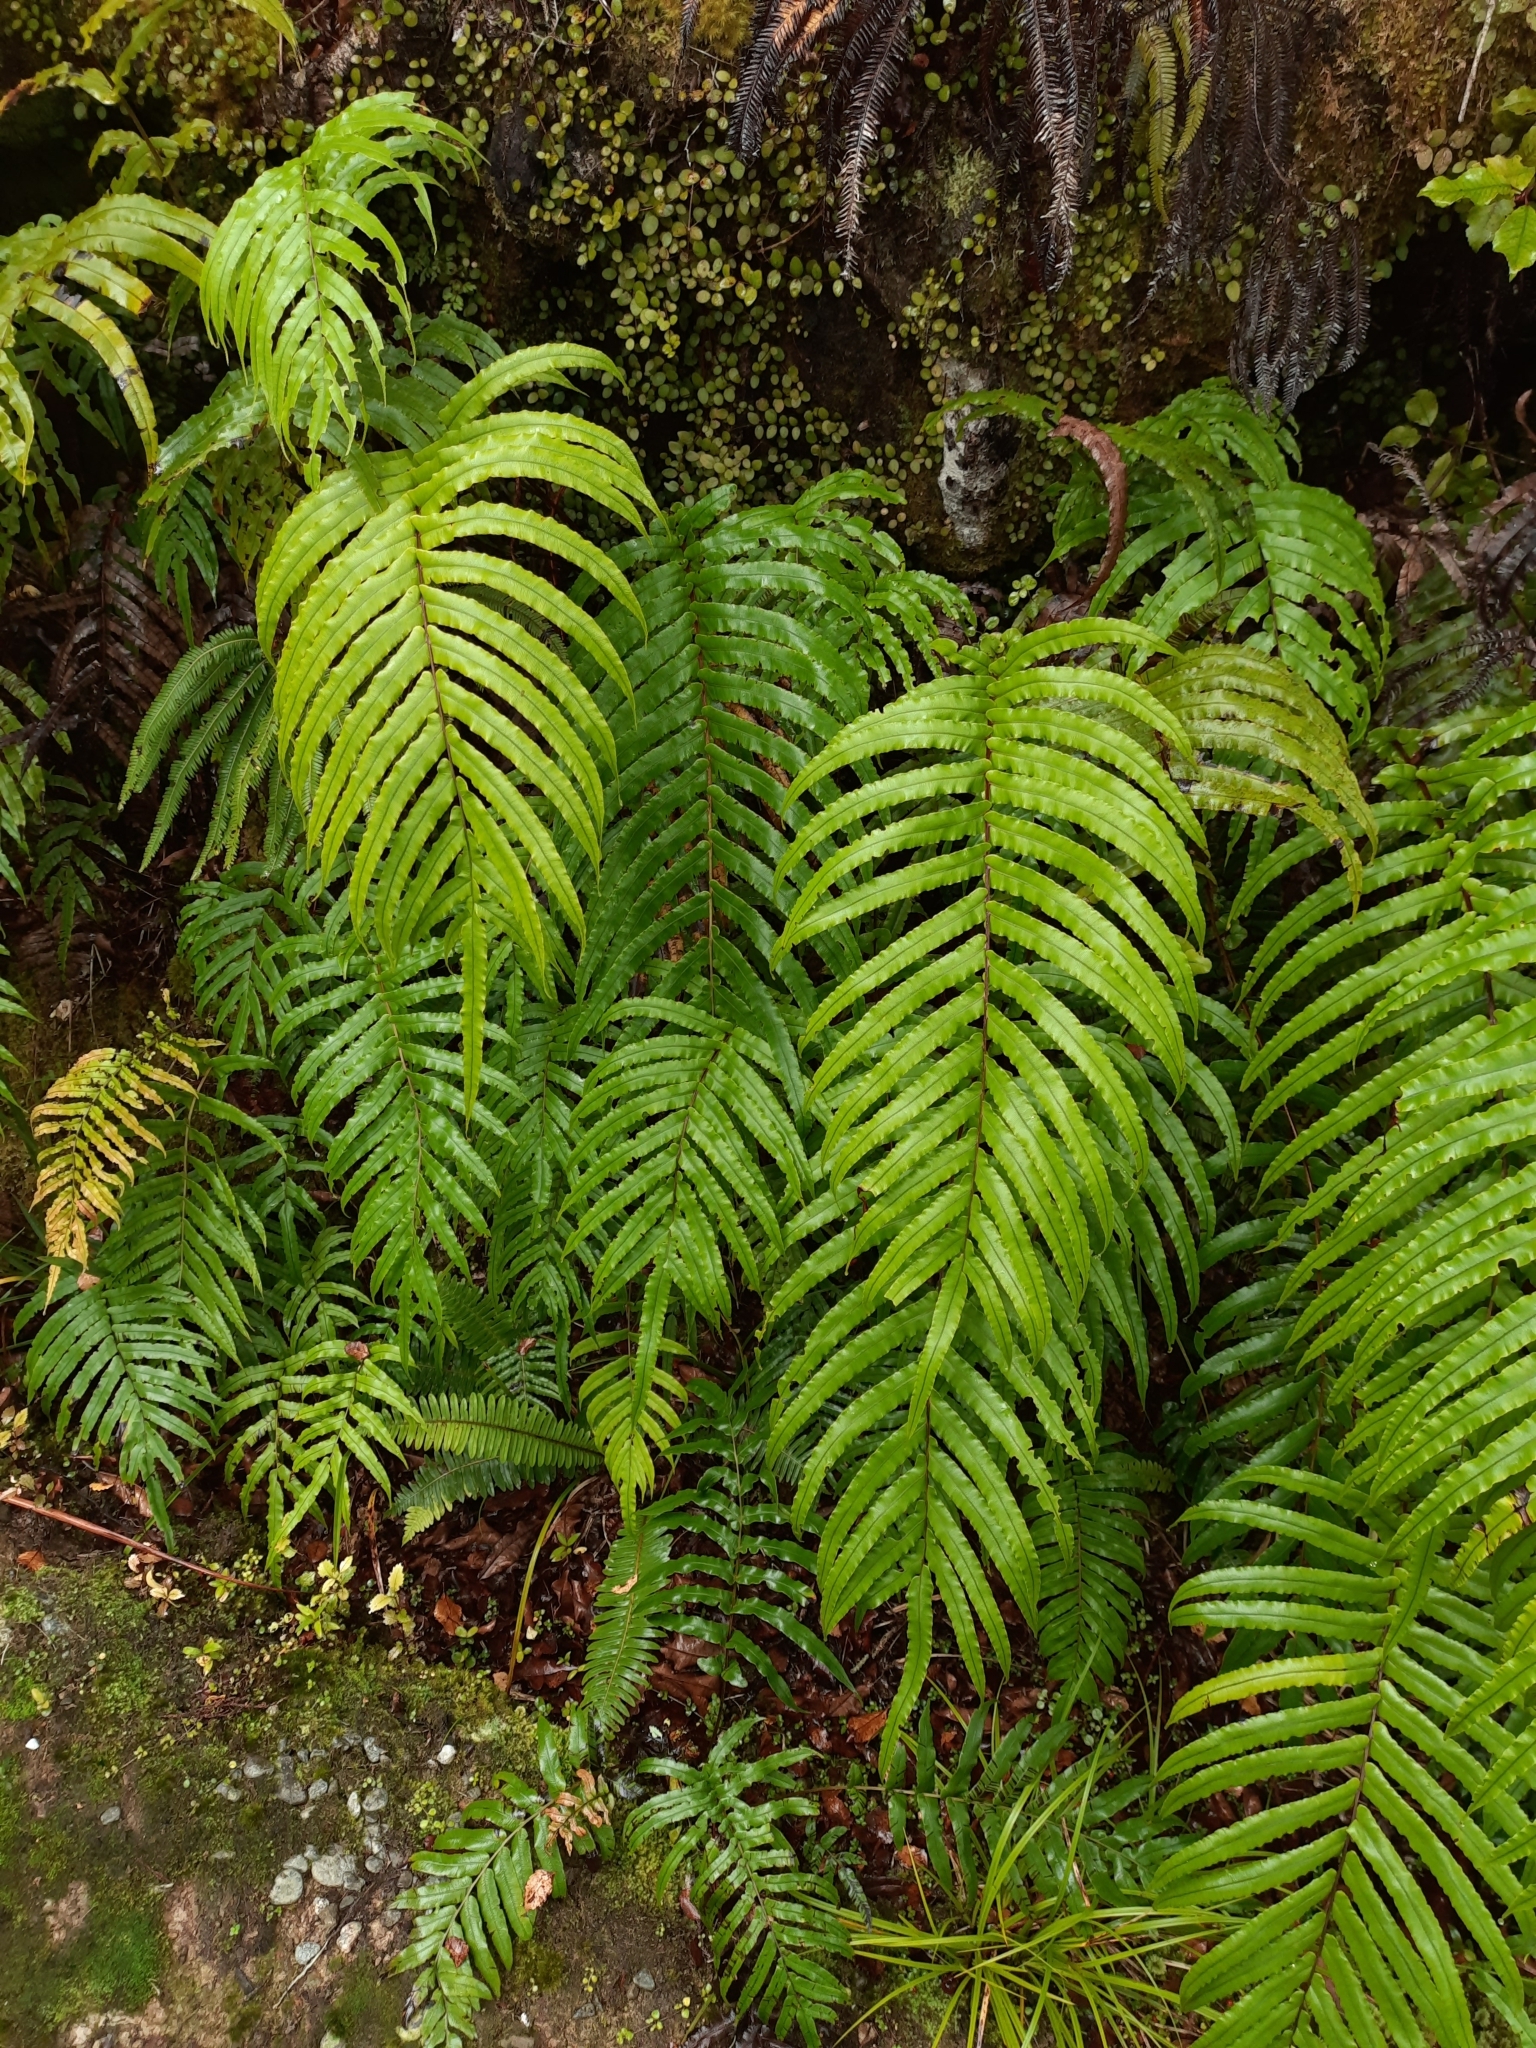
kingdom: Plantae
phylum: Tracheophyta
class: Polypodiopsida
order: Polypodiales
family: Blechnaceae
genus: Parablechnum
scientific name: Parablechnum novae-zelandiae
